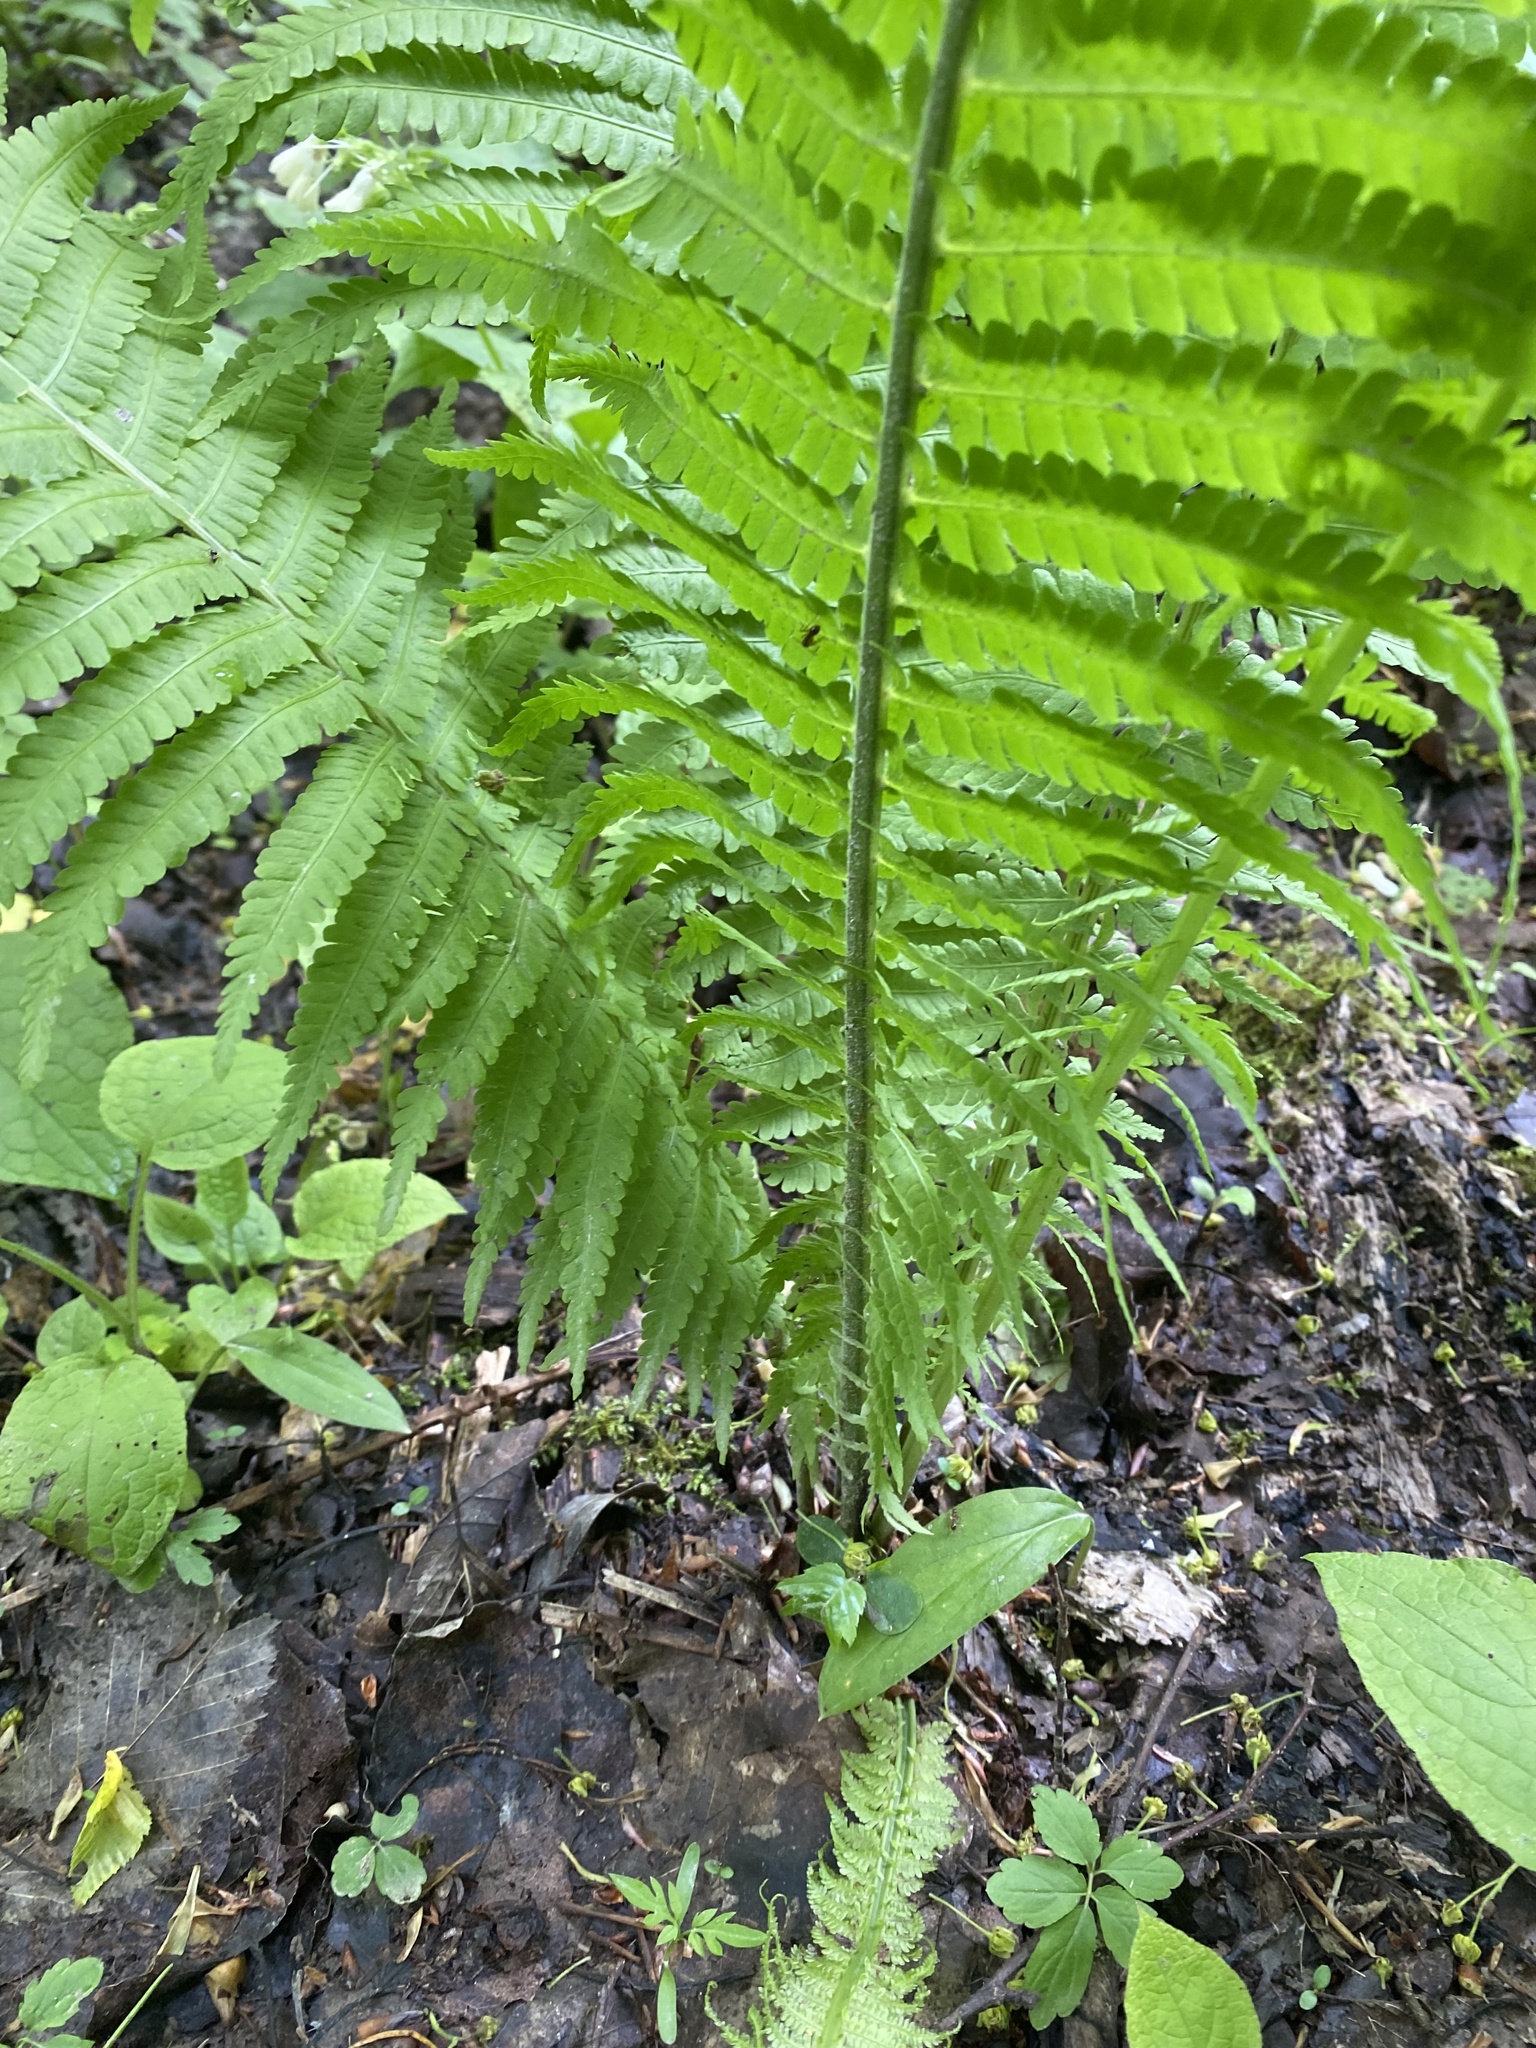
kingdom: Plantae
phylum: Tracheophyta
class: Polypodiopsida
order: Polypodiales
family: Onocleaceae
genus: Matteuccia
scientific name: Matteuccia struthiopteris
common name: Ostrich fern
